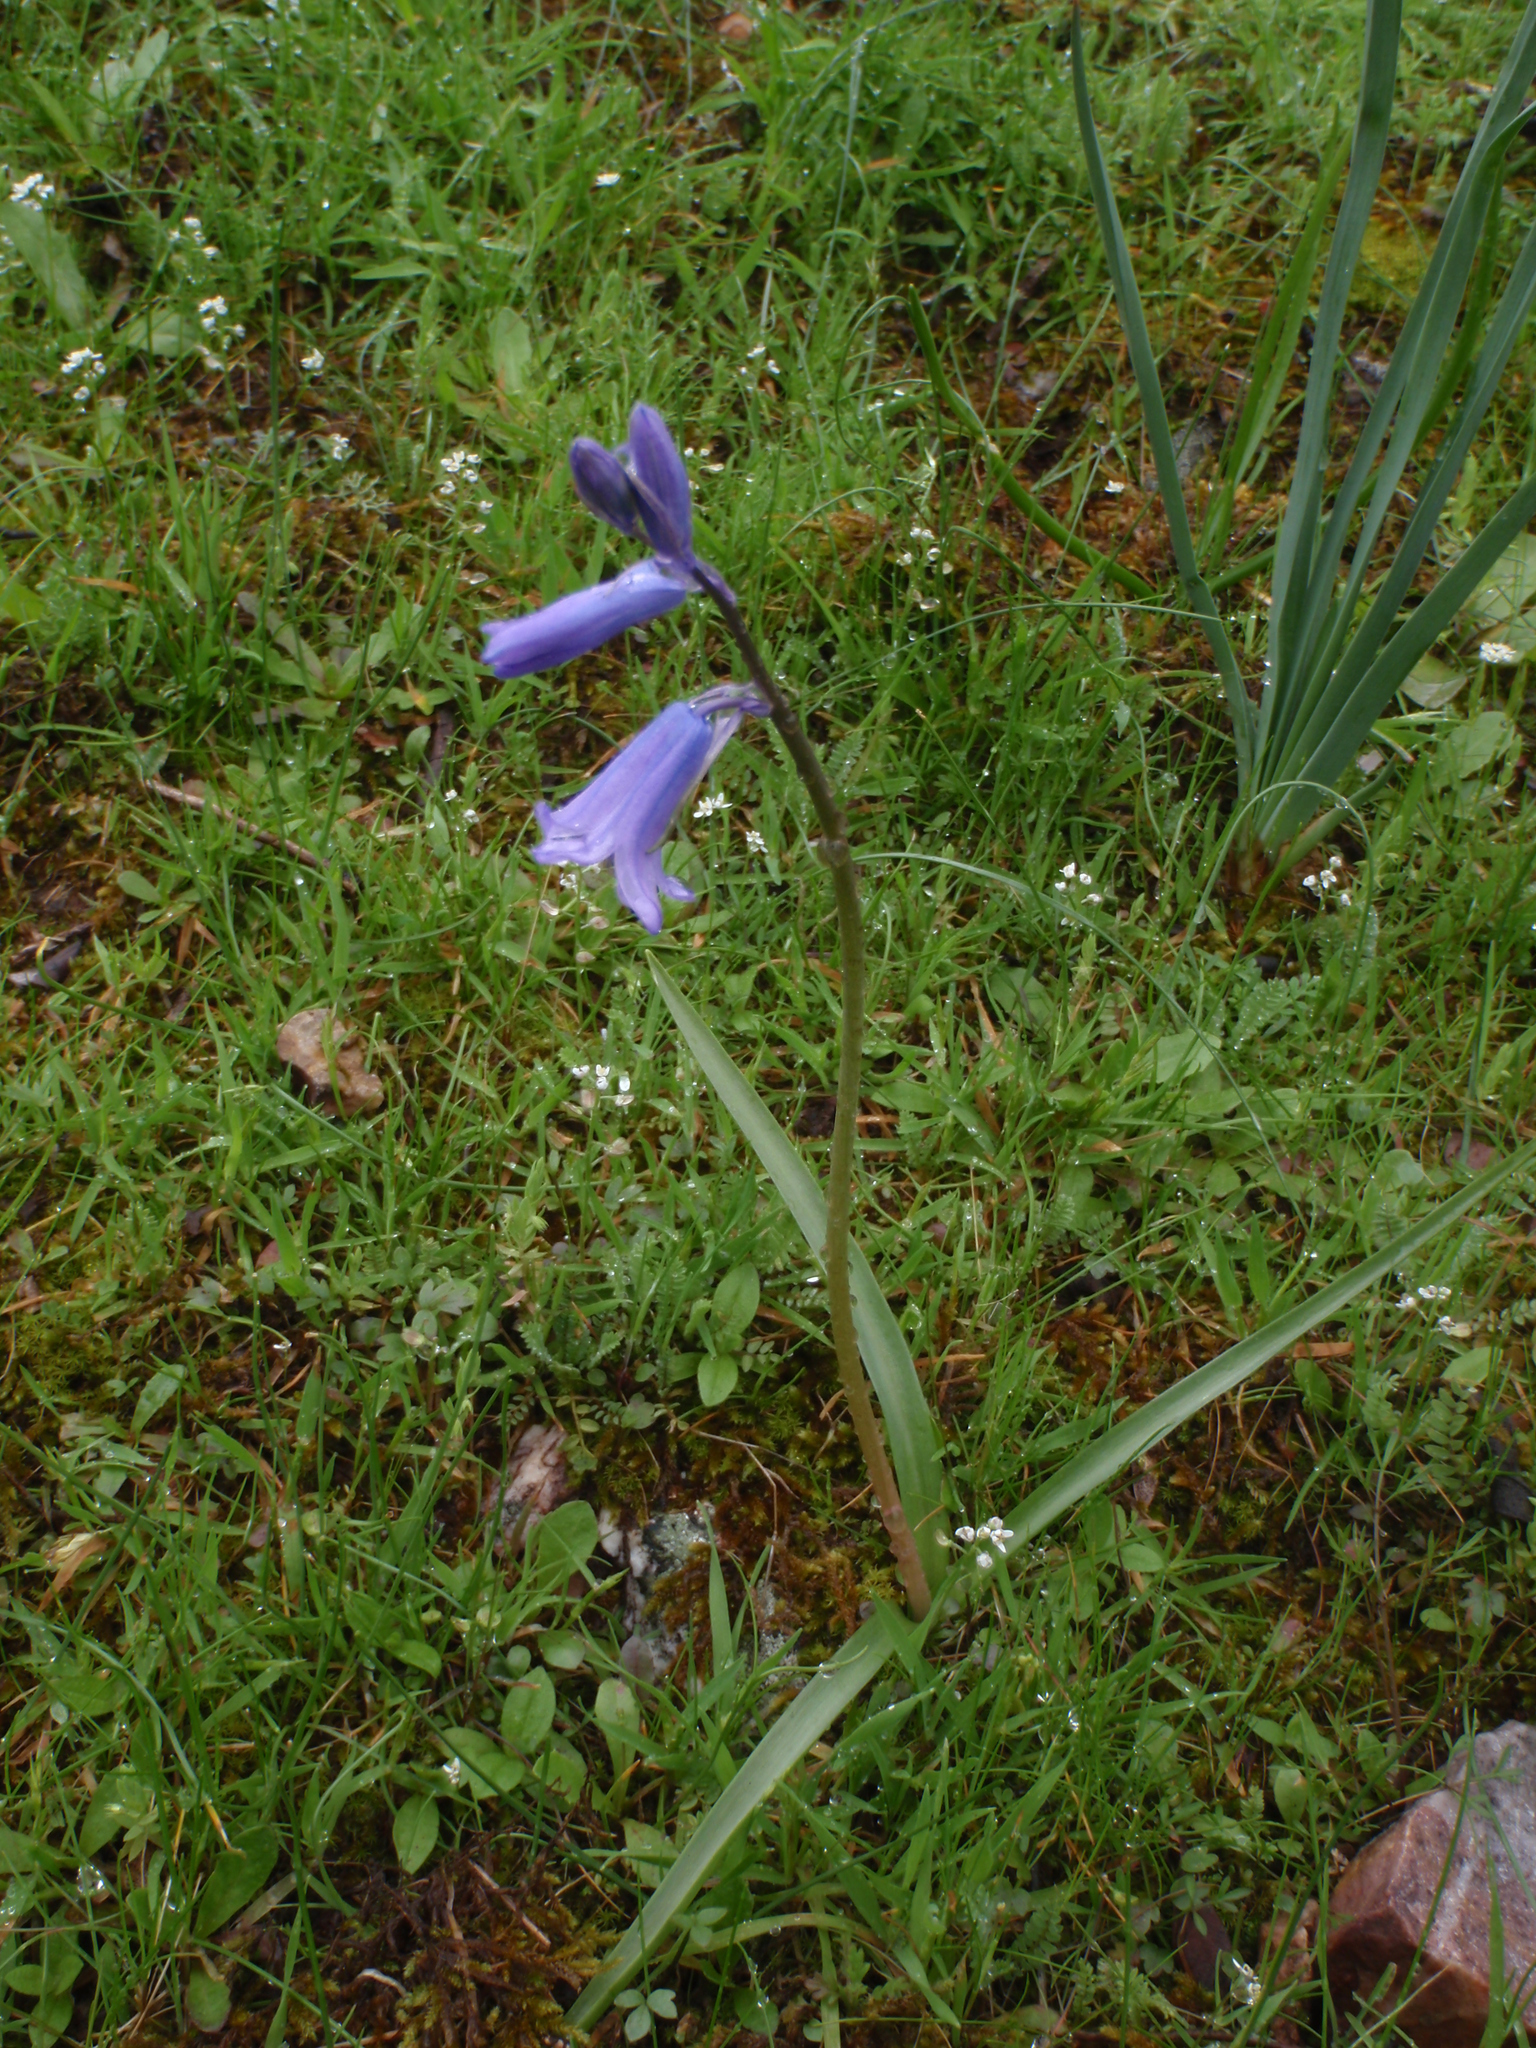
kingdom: Plantae
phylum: Tracheophyta
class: Liliopsida
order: Asparagales
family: Asparagaceae
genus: Hyacinthoides
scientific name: Hyacinthoides hispanica
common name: Spanish bluebell
